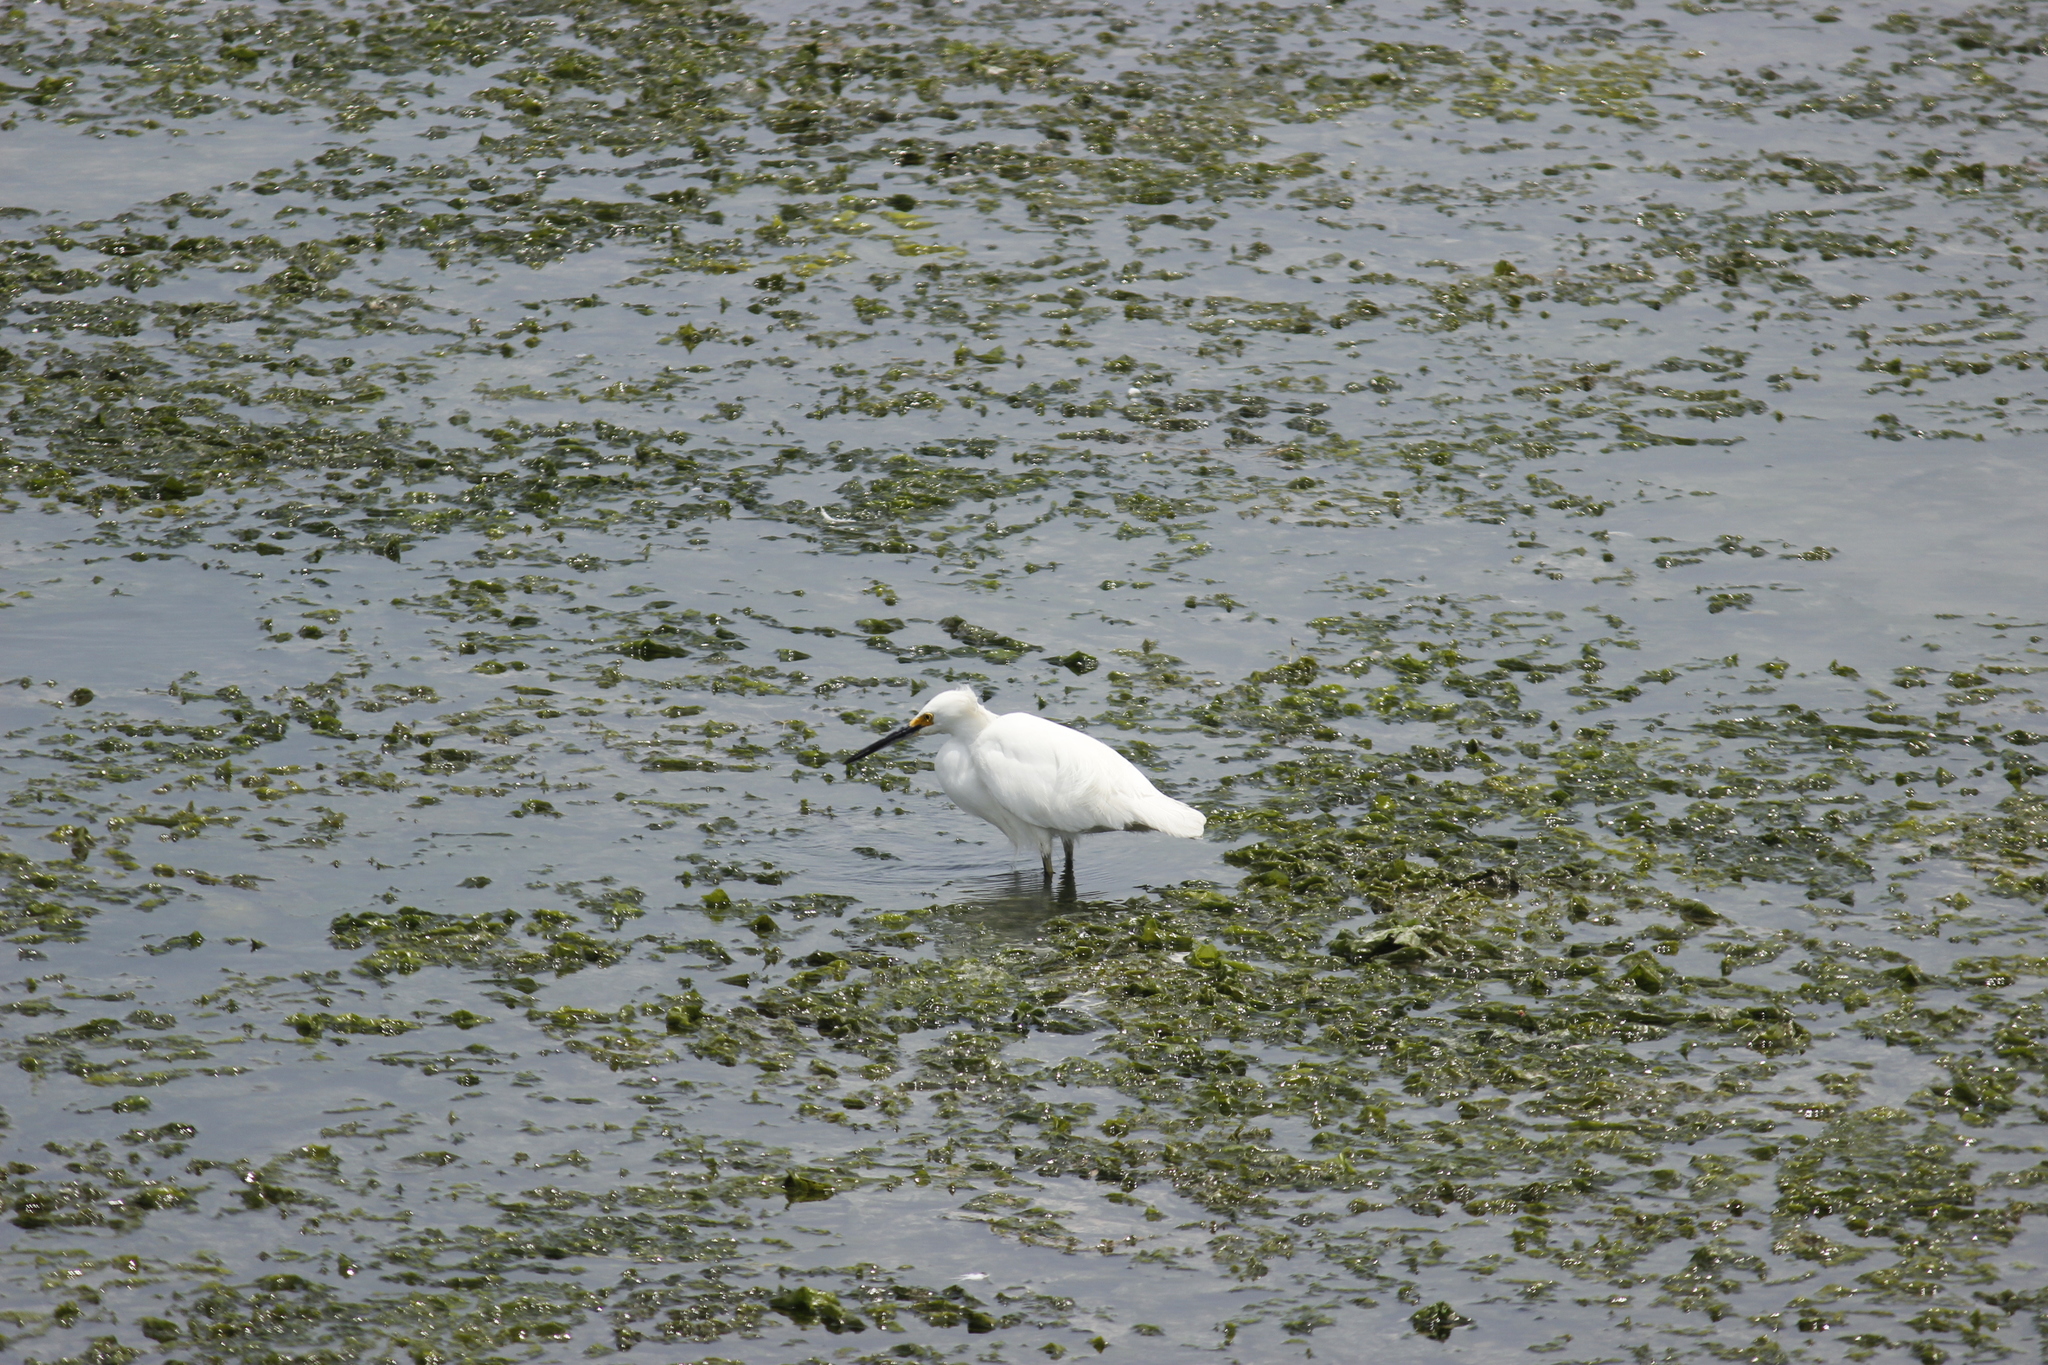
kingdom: Animalia
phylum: Chordata
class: Aves
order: Pelecaniformes
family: Ardeidae
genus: Egretta
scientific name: Egretta thula
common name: Snowy egret
